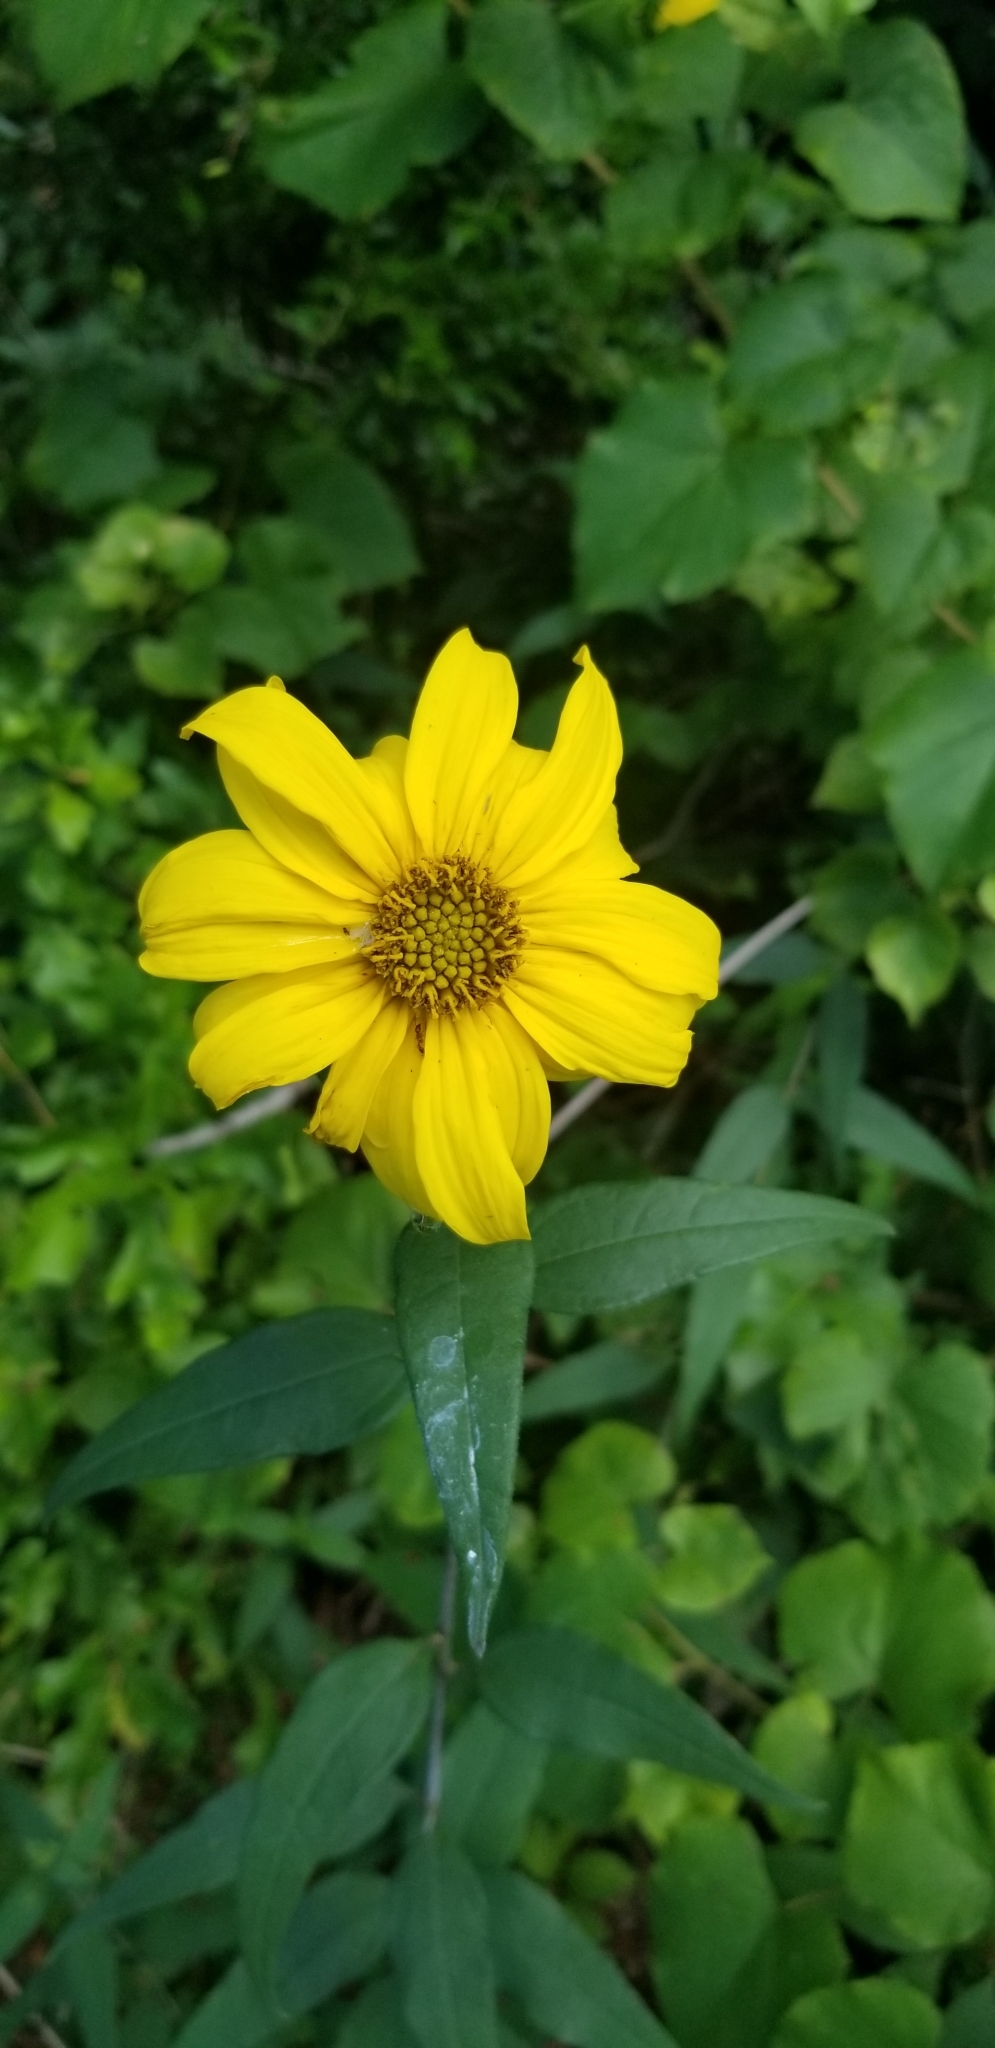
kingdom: Plantae
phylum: Tracheophyta
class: Magnoliopsida
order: Asterales
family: Asteraceae
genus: Helianthus
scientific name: Helianthus resinosus
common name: Resin-dot sunflower
